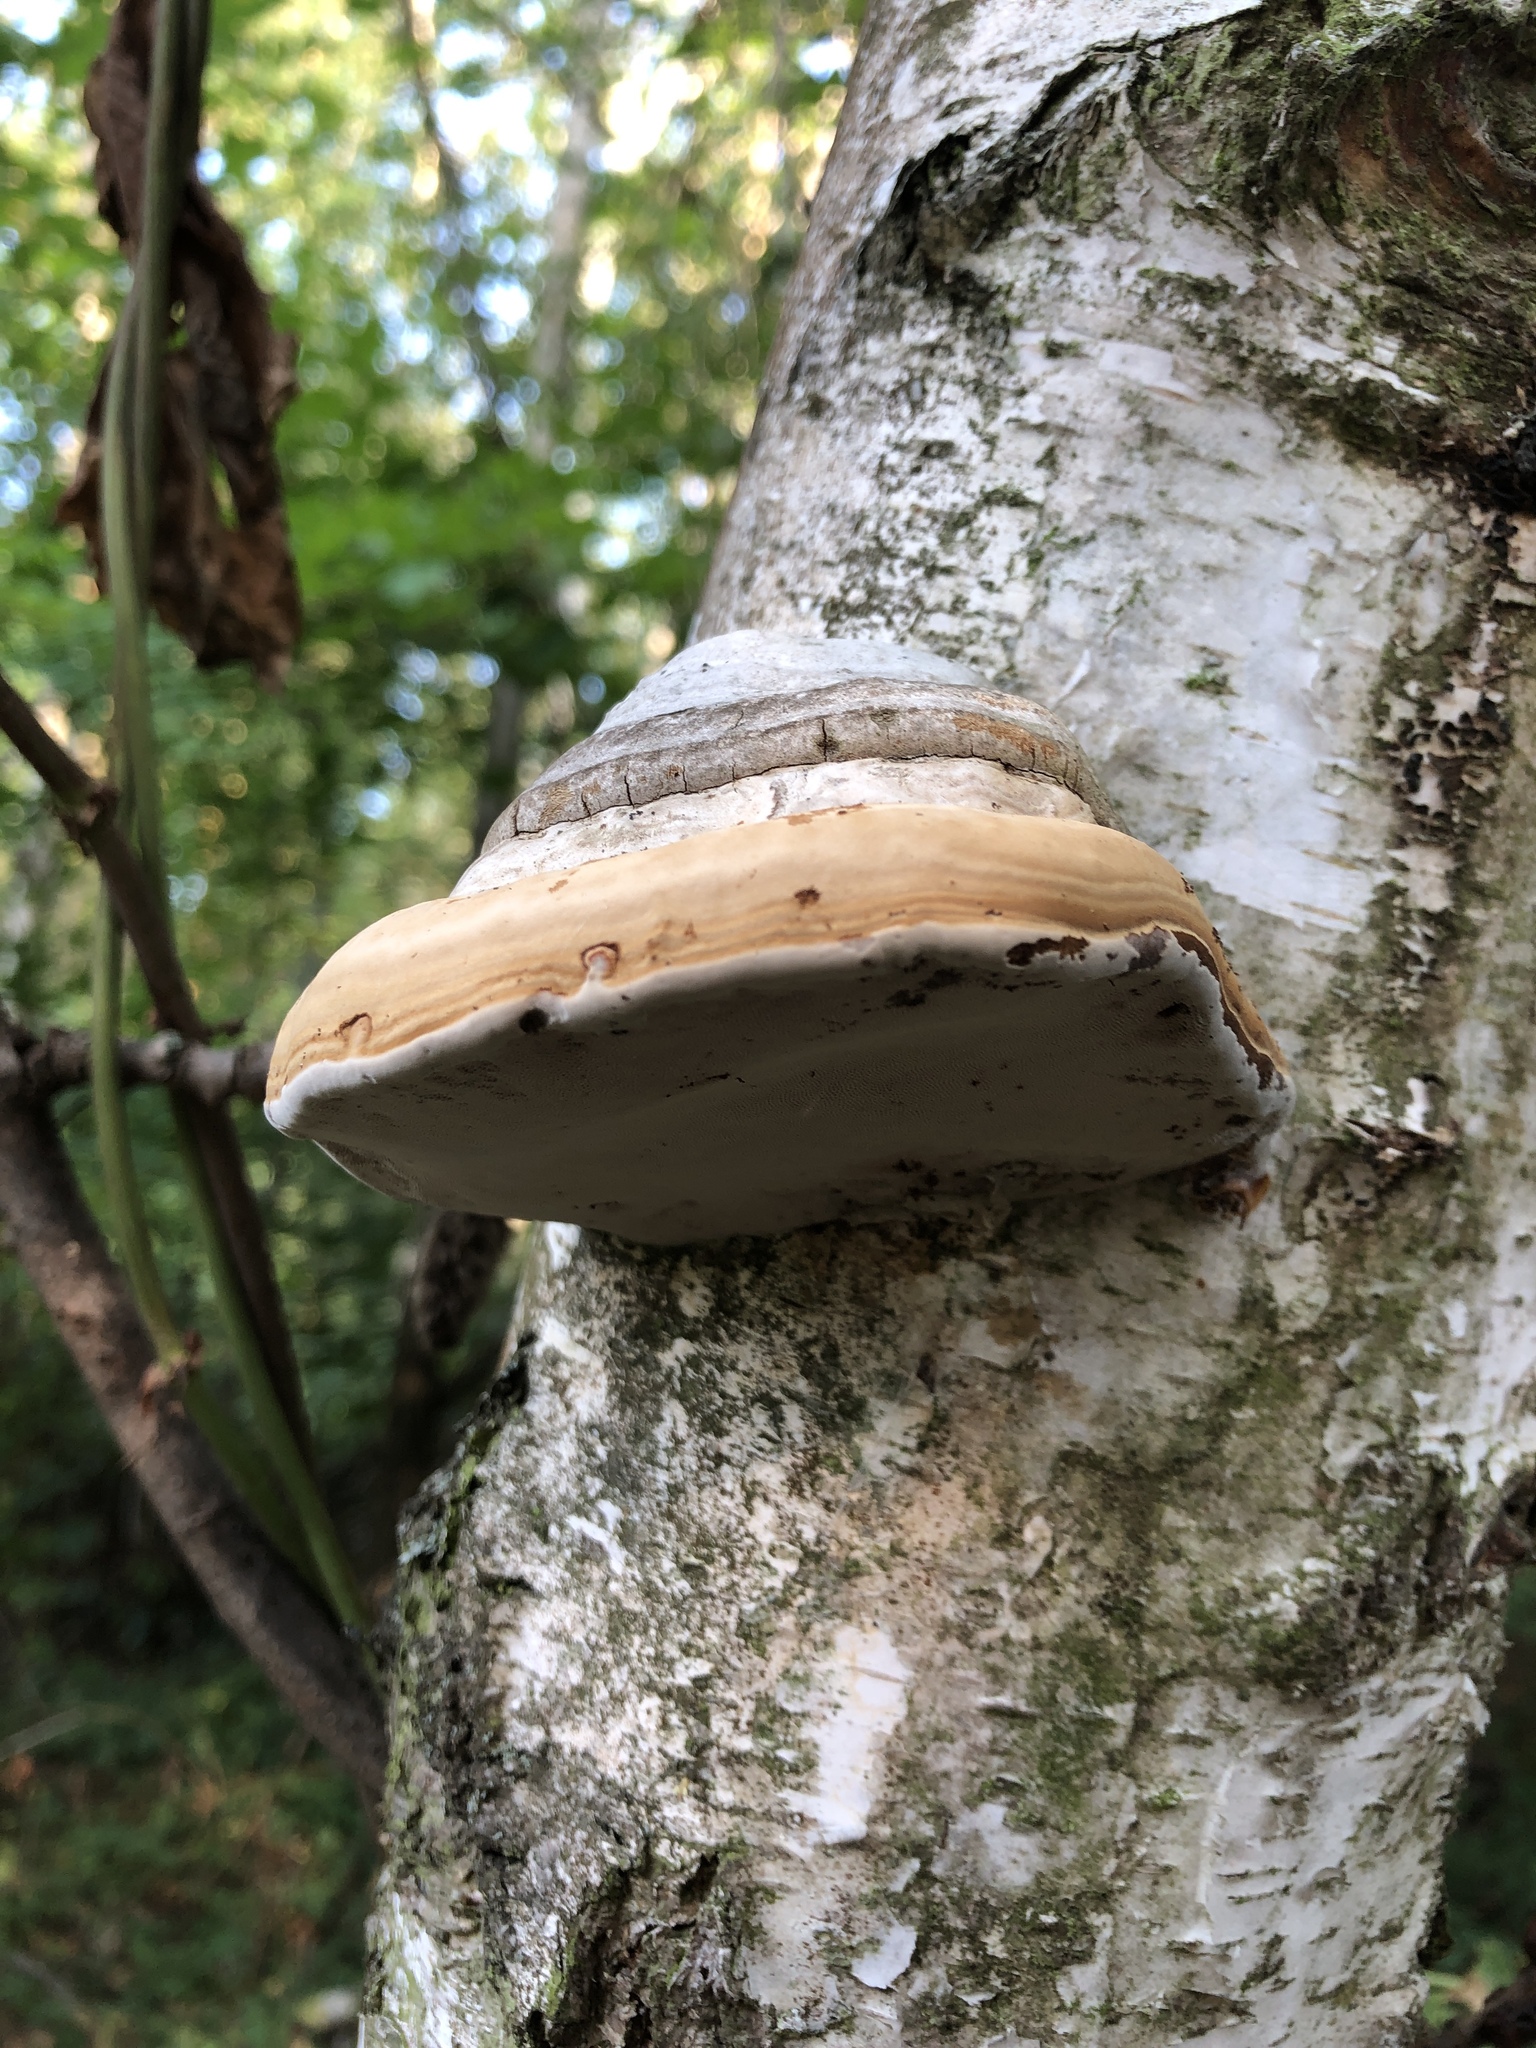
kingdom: Fungi
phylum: Basidiomycota
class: Agaricomycetes
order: Polyporales
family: Polyporaceae
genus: Fomes
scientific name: Fomes fomentarius
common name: Hoof fungus
